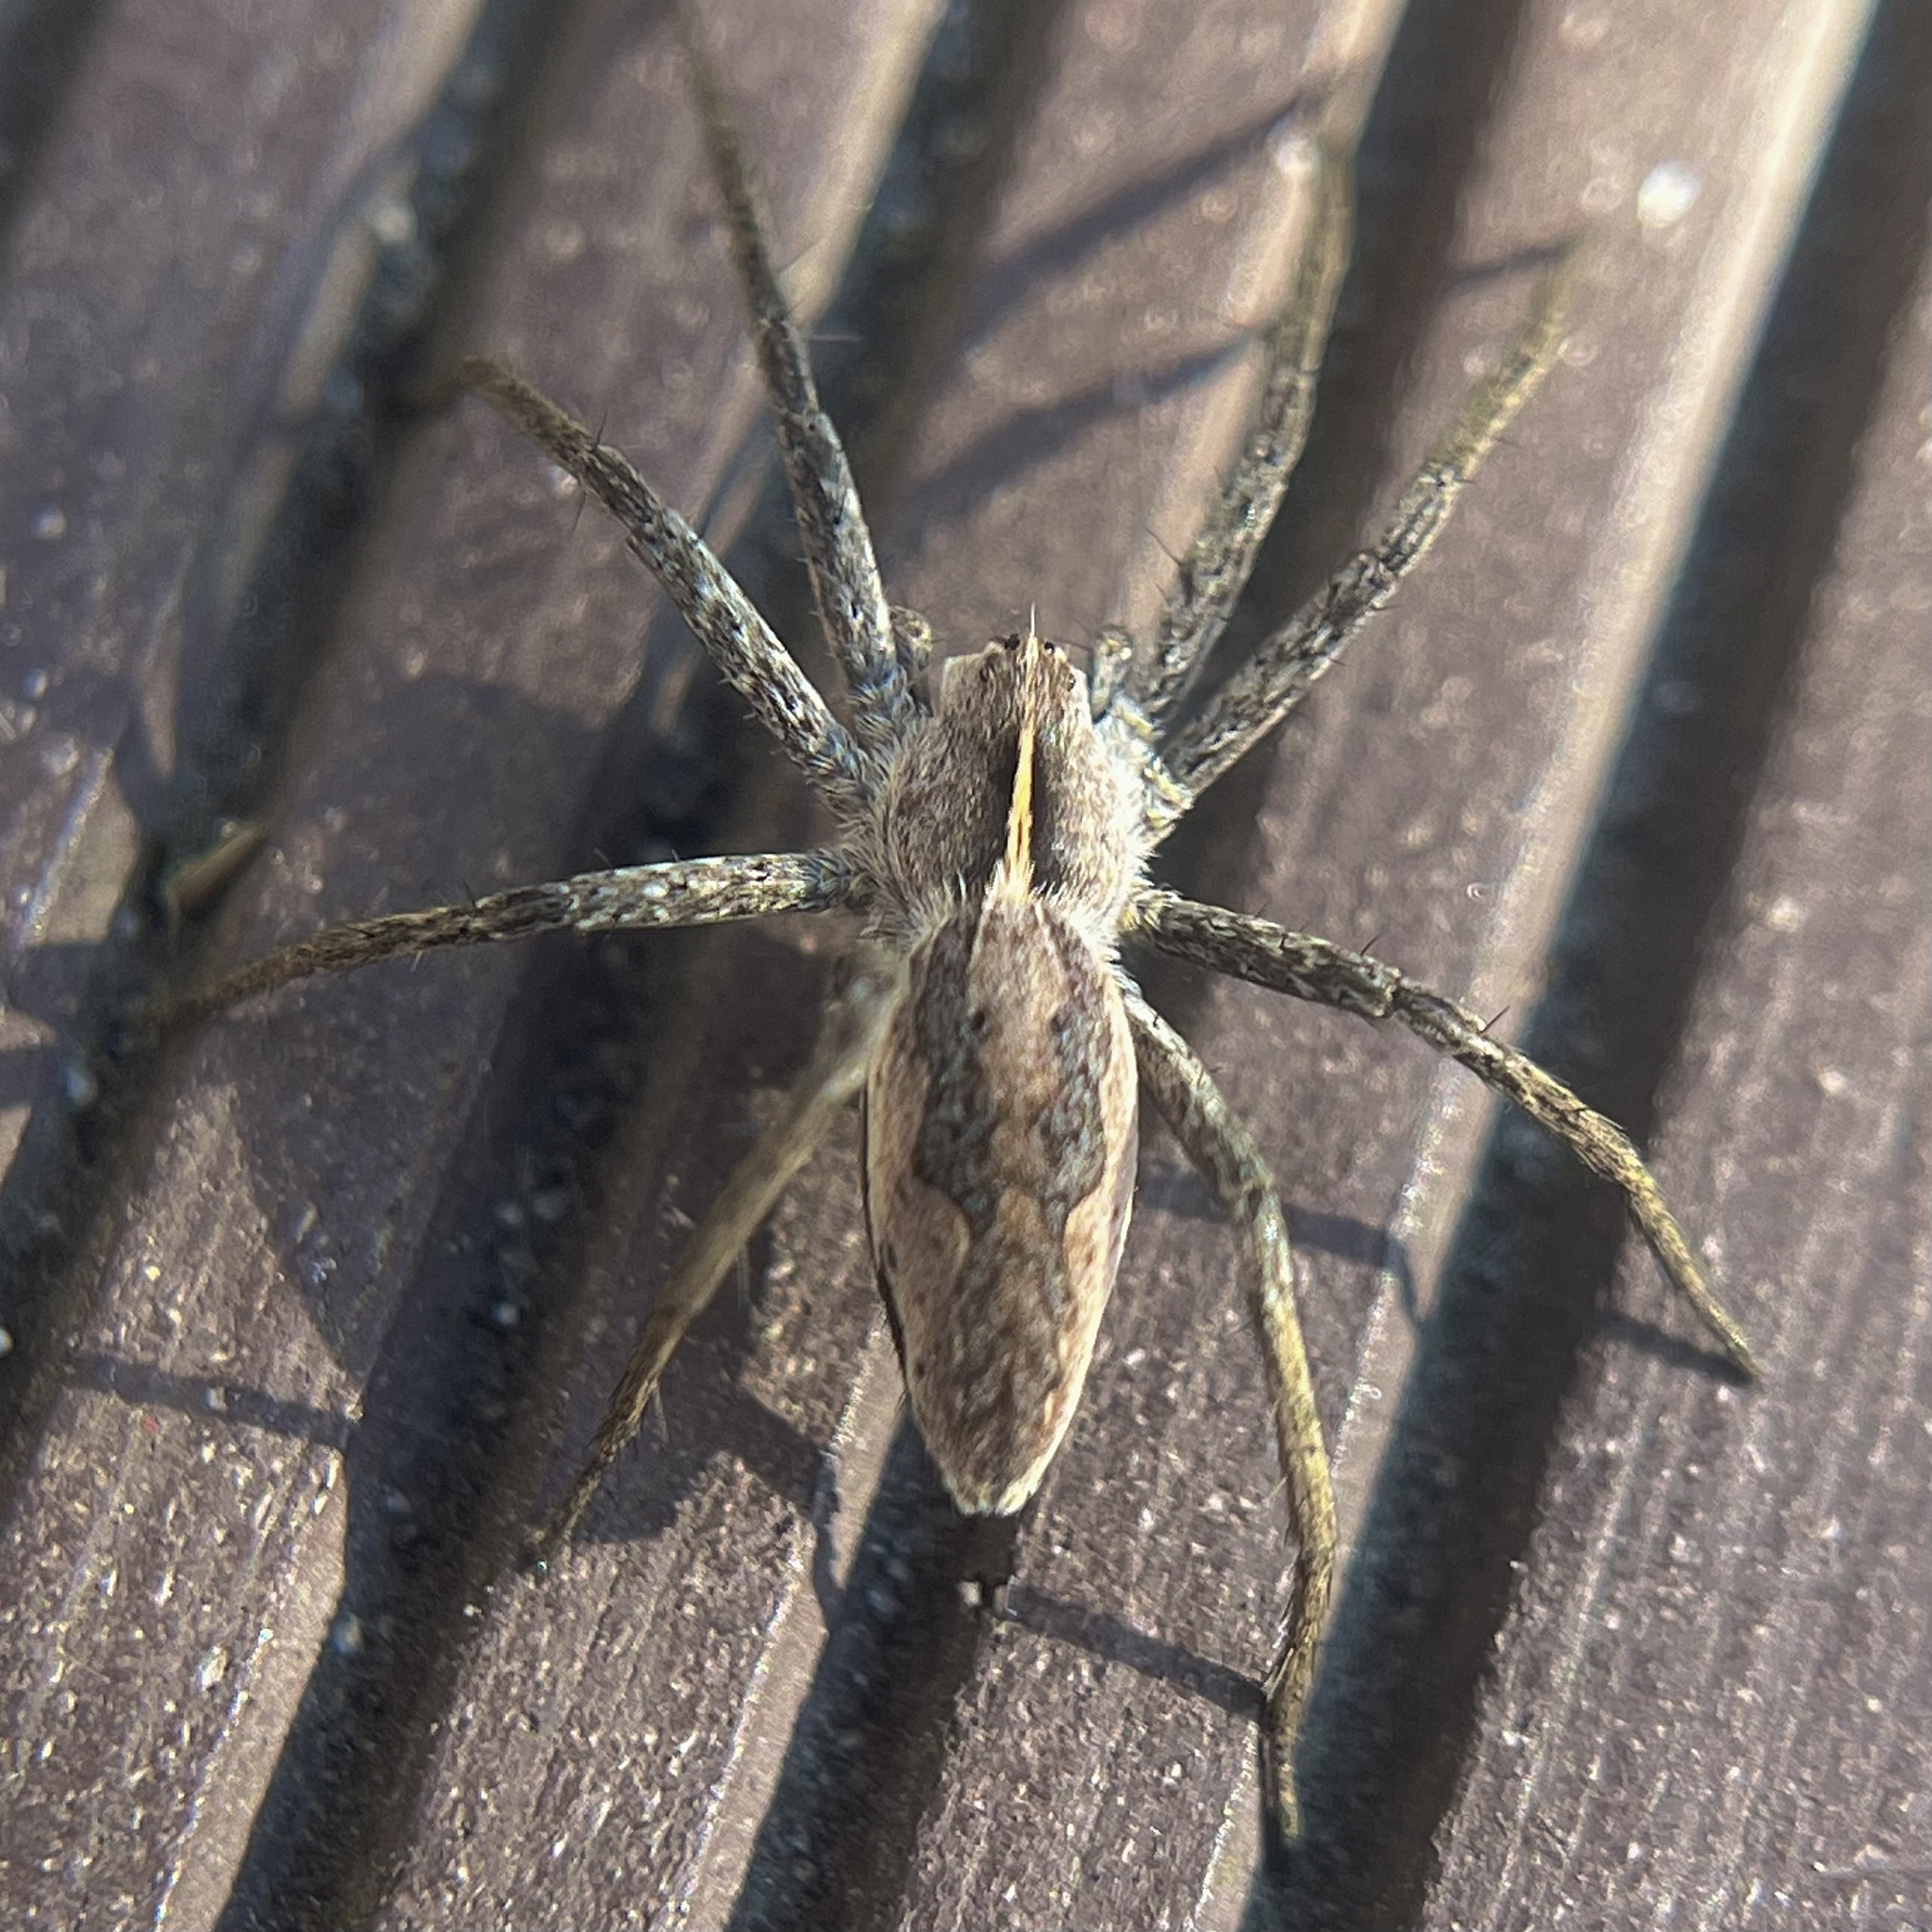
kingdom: Animalia
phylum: Arthropoda
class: Arachnida
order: Araneae
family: Pisauridae
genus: Pisaura
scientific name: Pisaura mirabilis
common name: Tent spider
